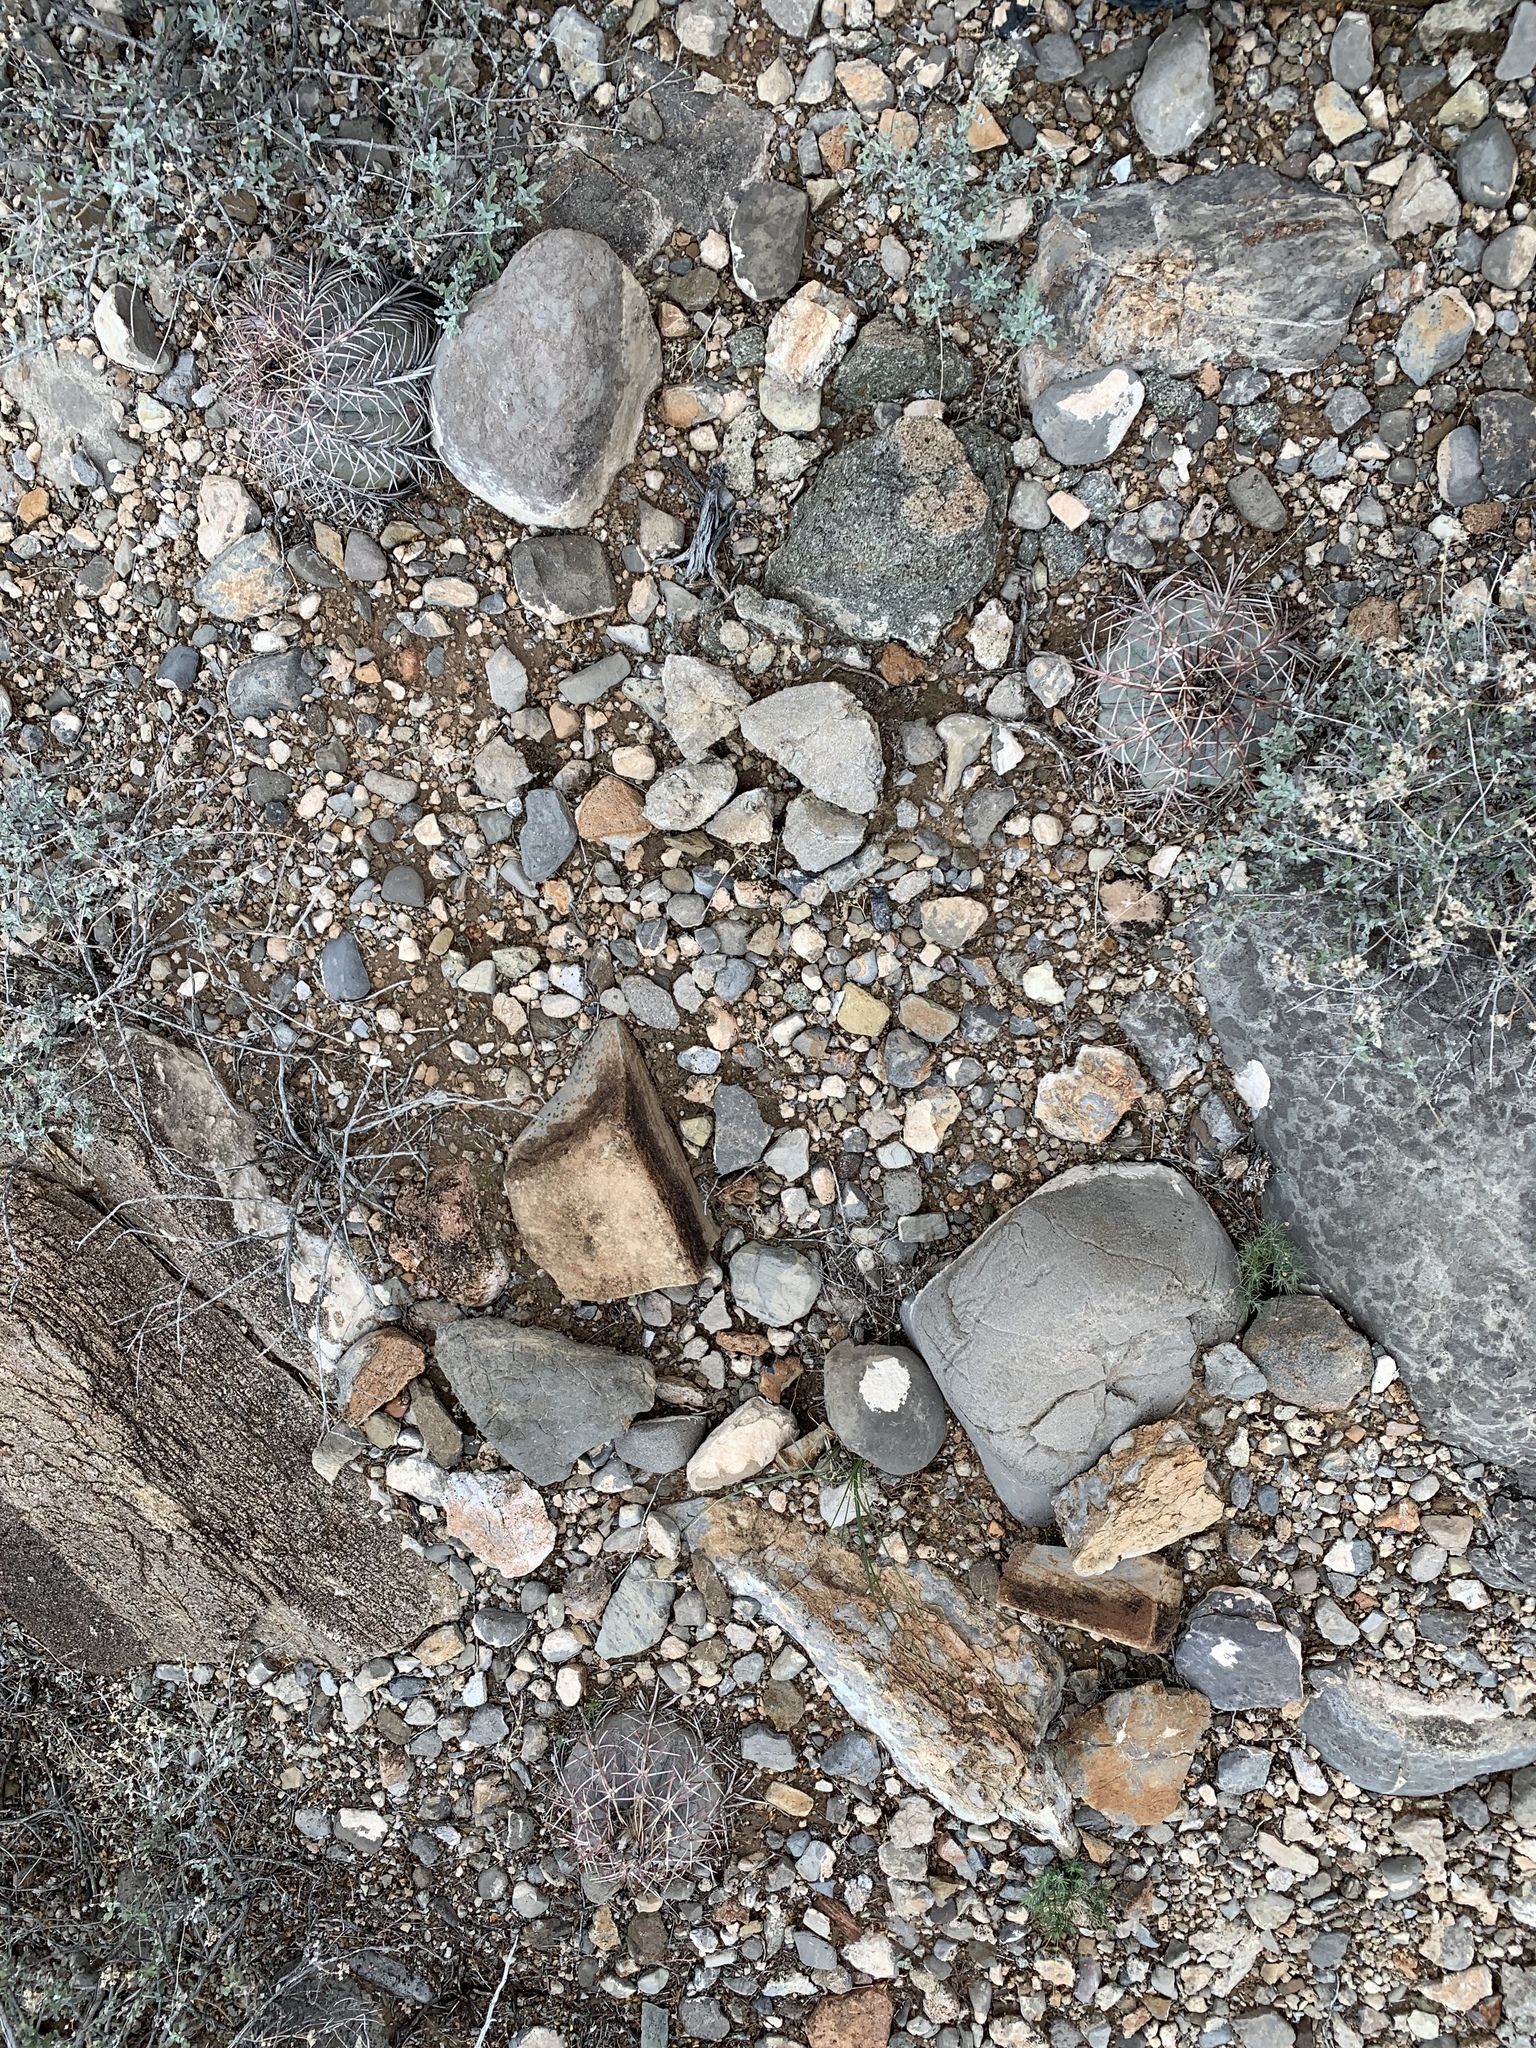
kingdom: Plantae
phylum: Tracheophyta
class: Magnoliopsida
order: Caryophyllales
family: Cactaceae
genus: Echinocactus
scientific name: Echinocactus horizonthalonius
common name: Devilshead
